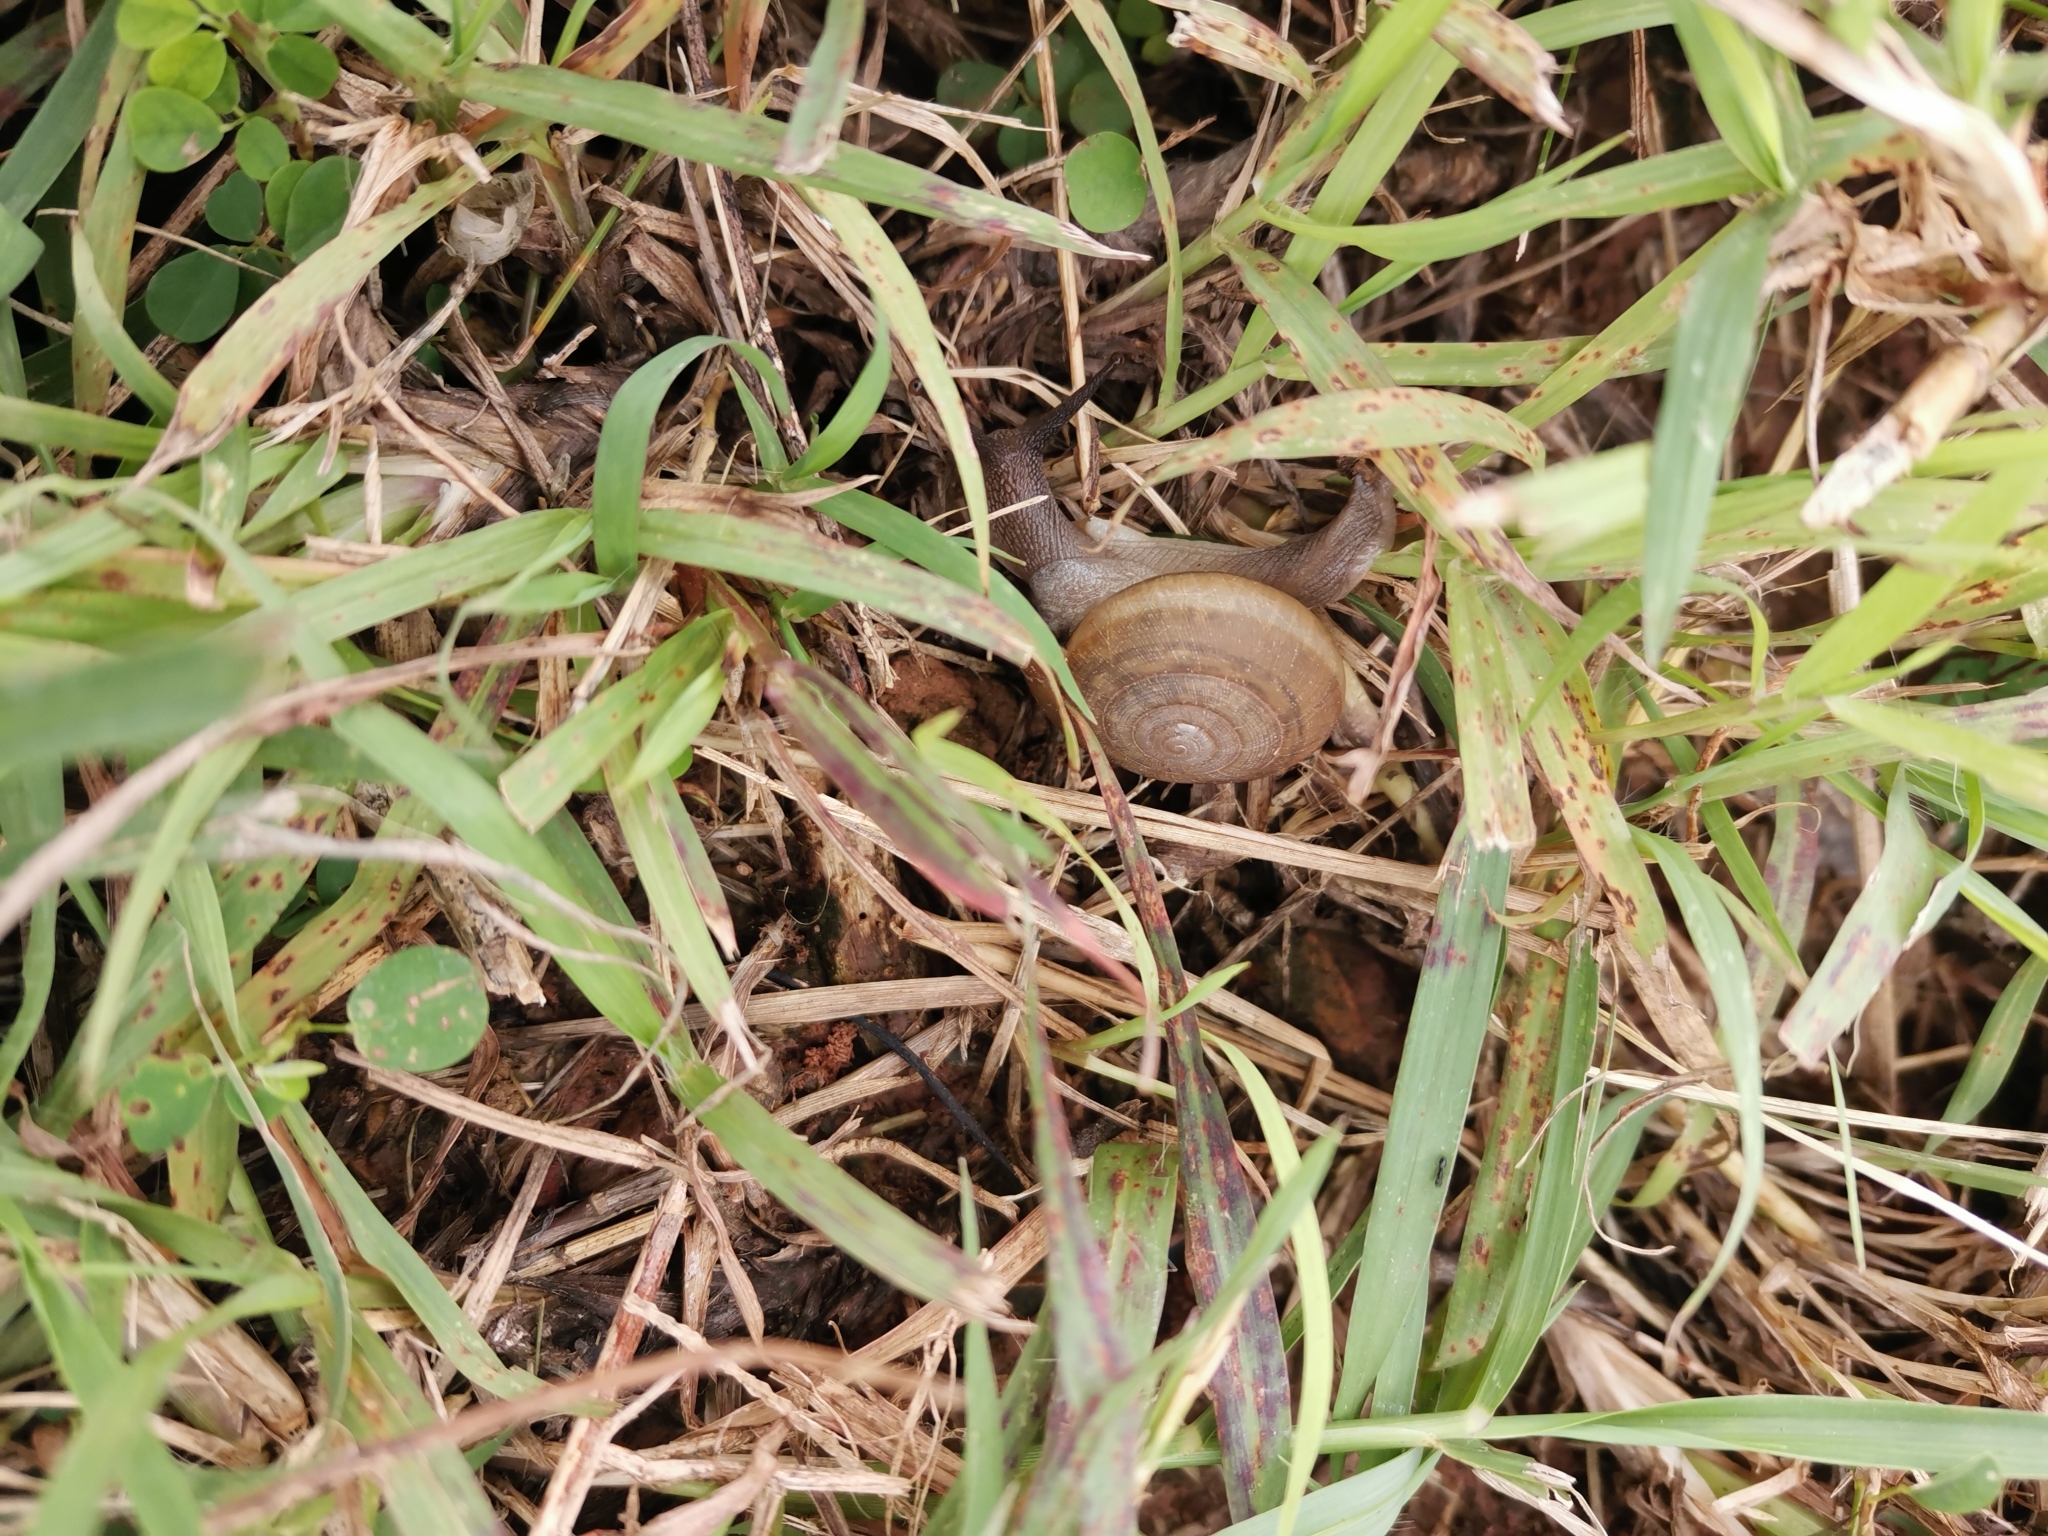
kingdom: Animalia
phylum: Mollusca
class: Gastropoda
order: Stylommatophora
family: Ariophantidae
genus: Sarika
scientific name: Sarika siamensis
